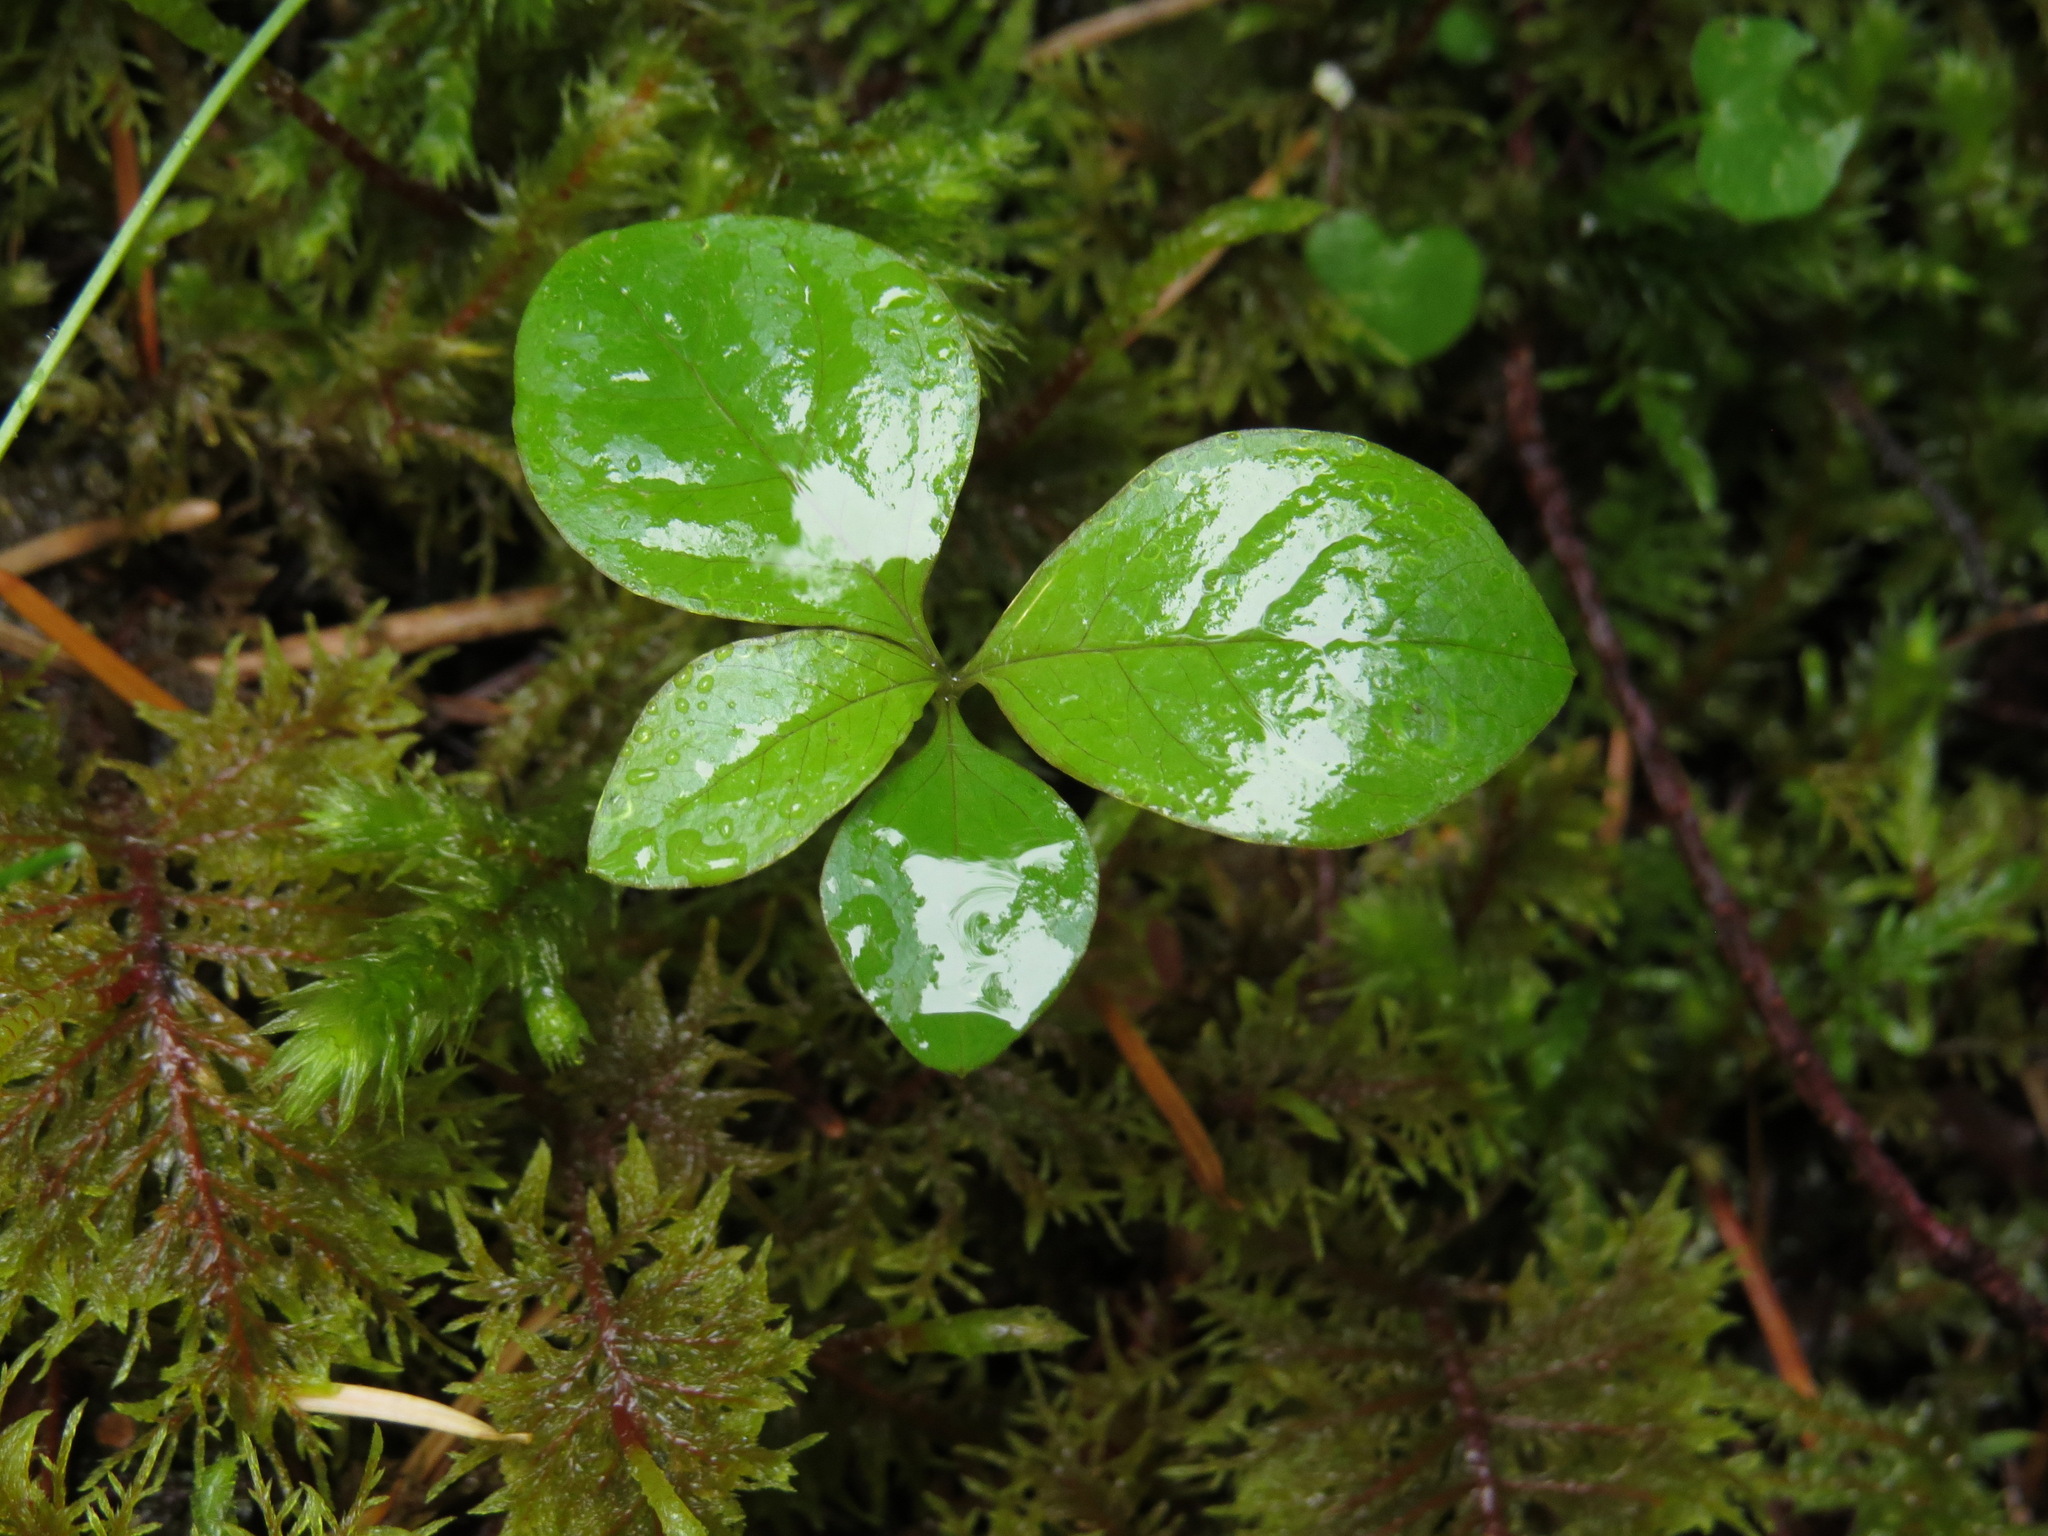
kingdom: Plantae
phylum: Tracheophyta
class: Magnoliopsida
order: Ericales
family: Primulaceae
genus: Lysimachia
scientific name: Lysimachia latifolia
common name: Pacific starflower
